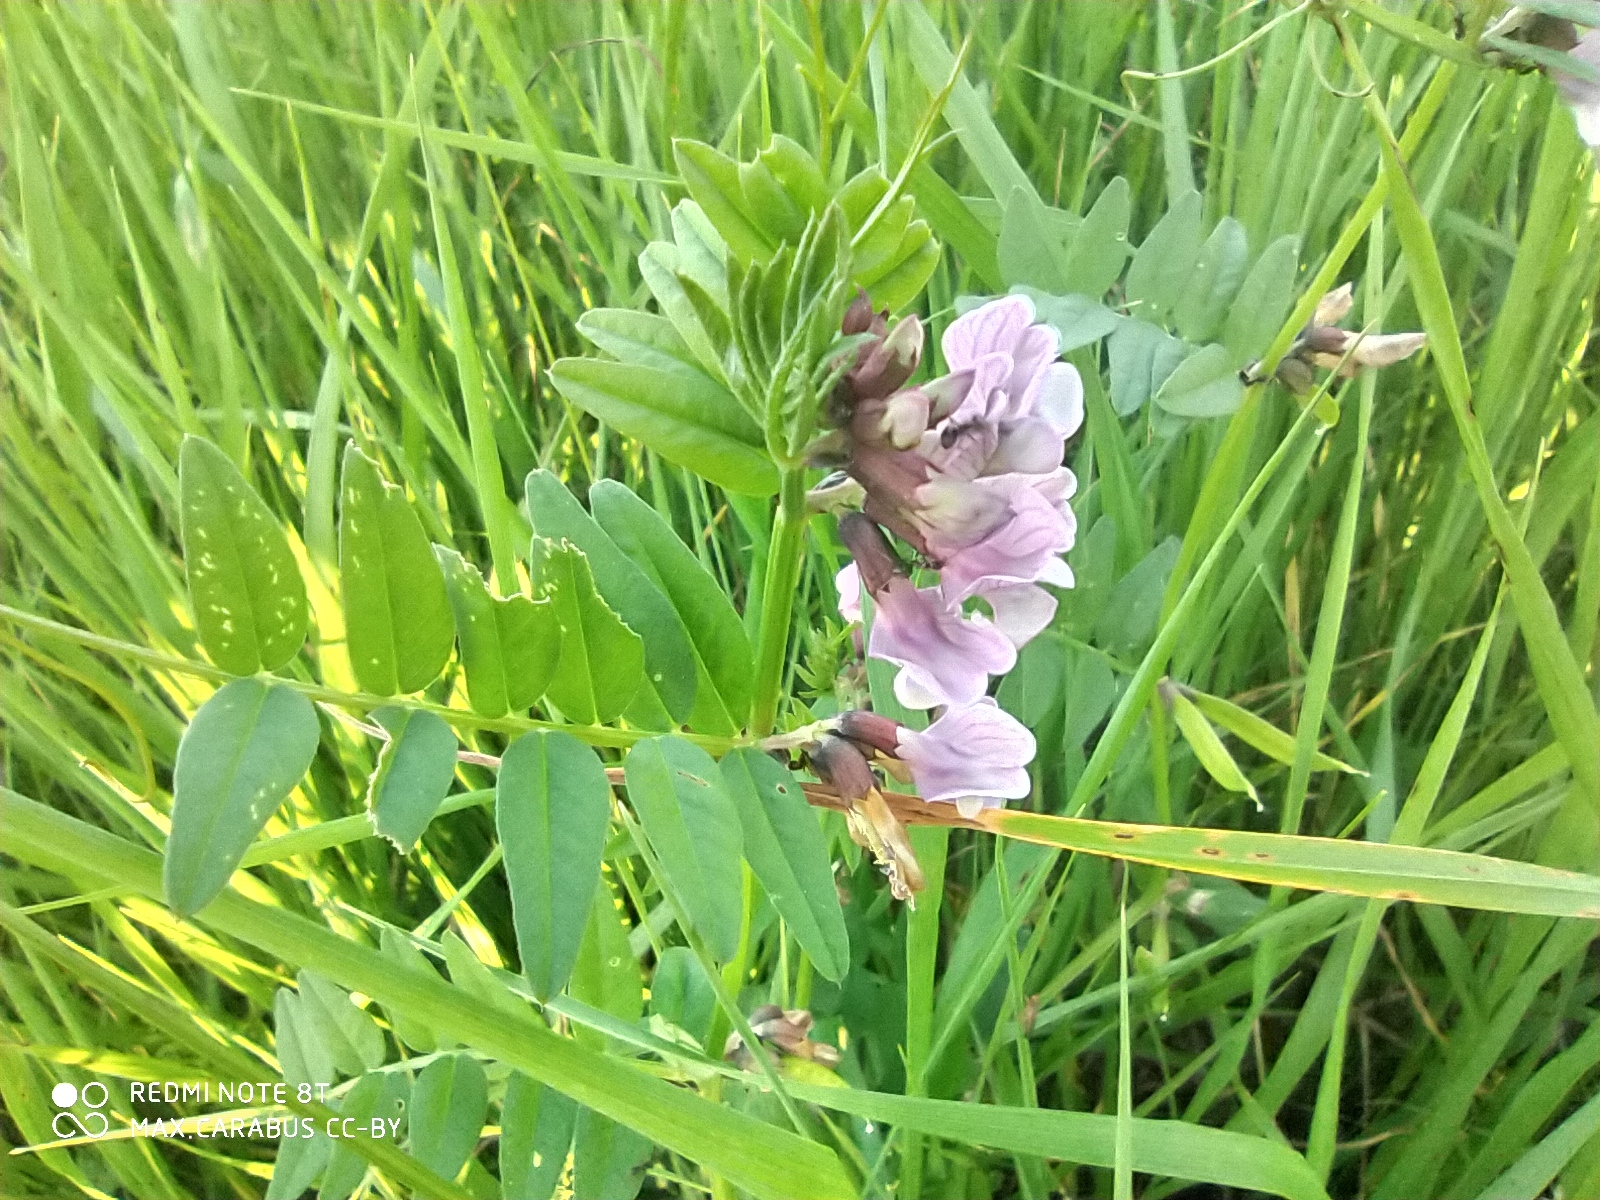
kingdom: Plantae
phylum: Tracheophyta
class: Magnoliopsida
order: Fabales
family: Fabaceae
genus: Vicia
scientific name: Vicia sepium
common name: Bush vetch
